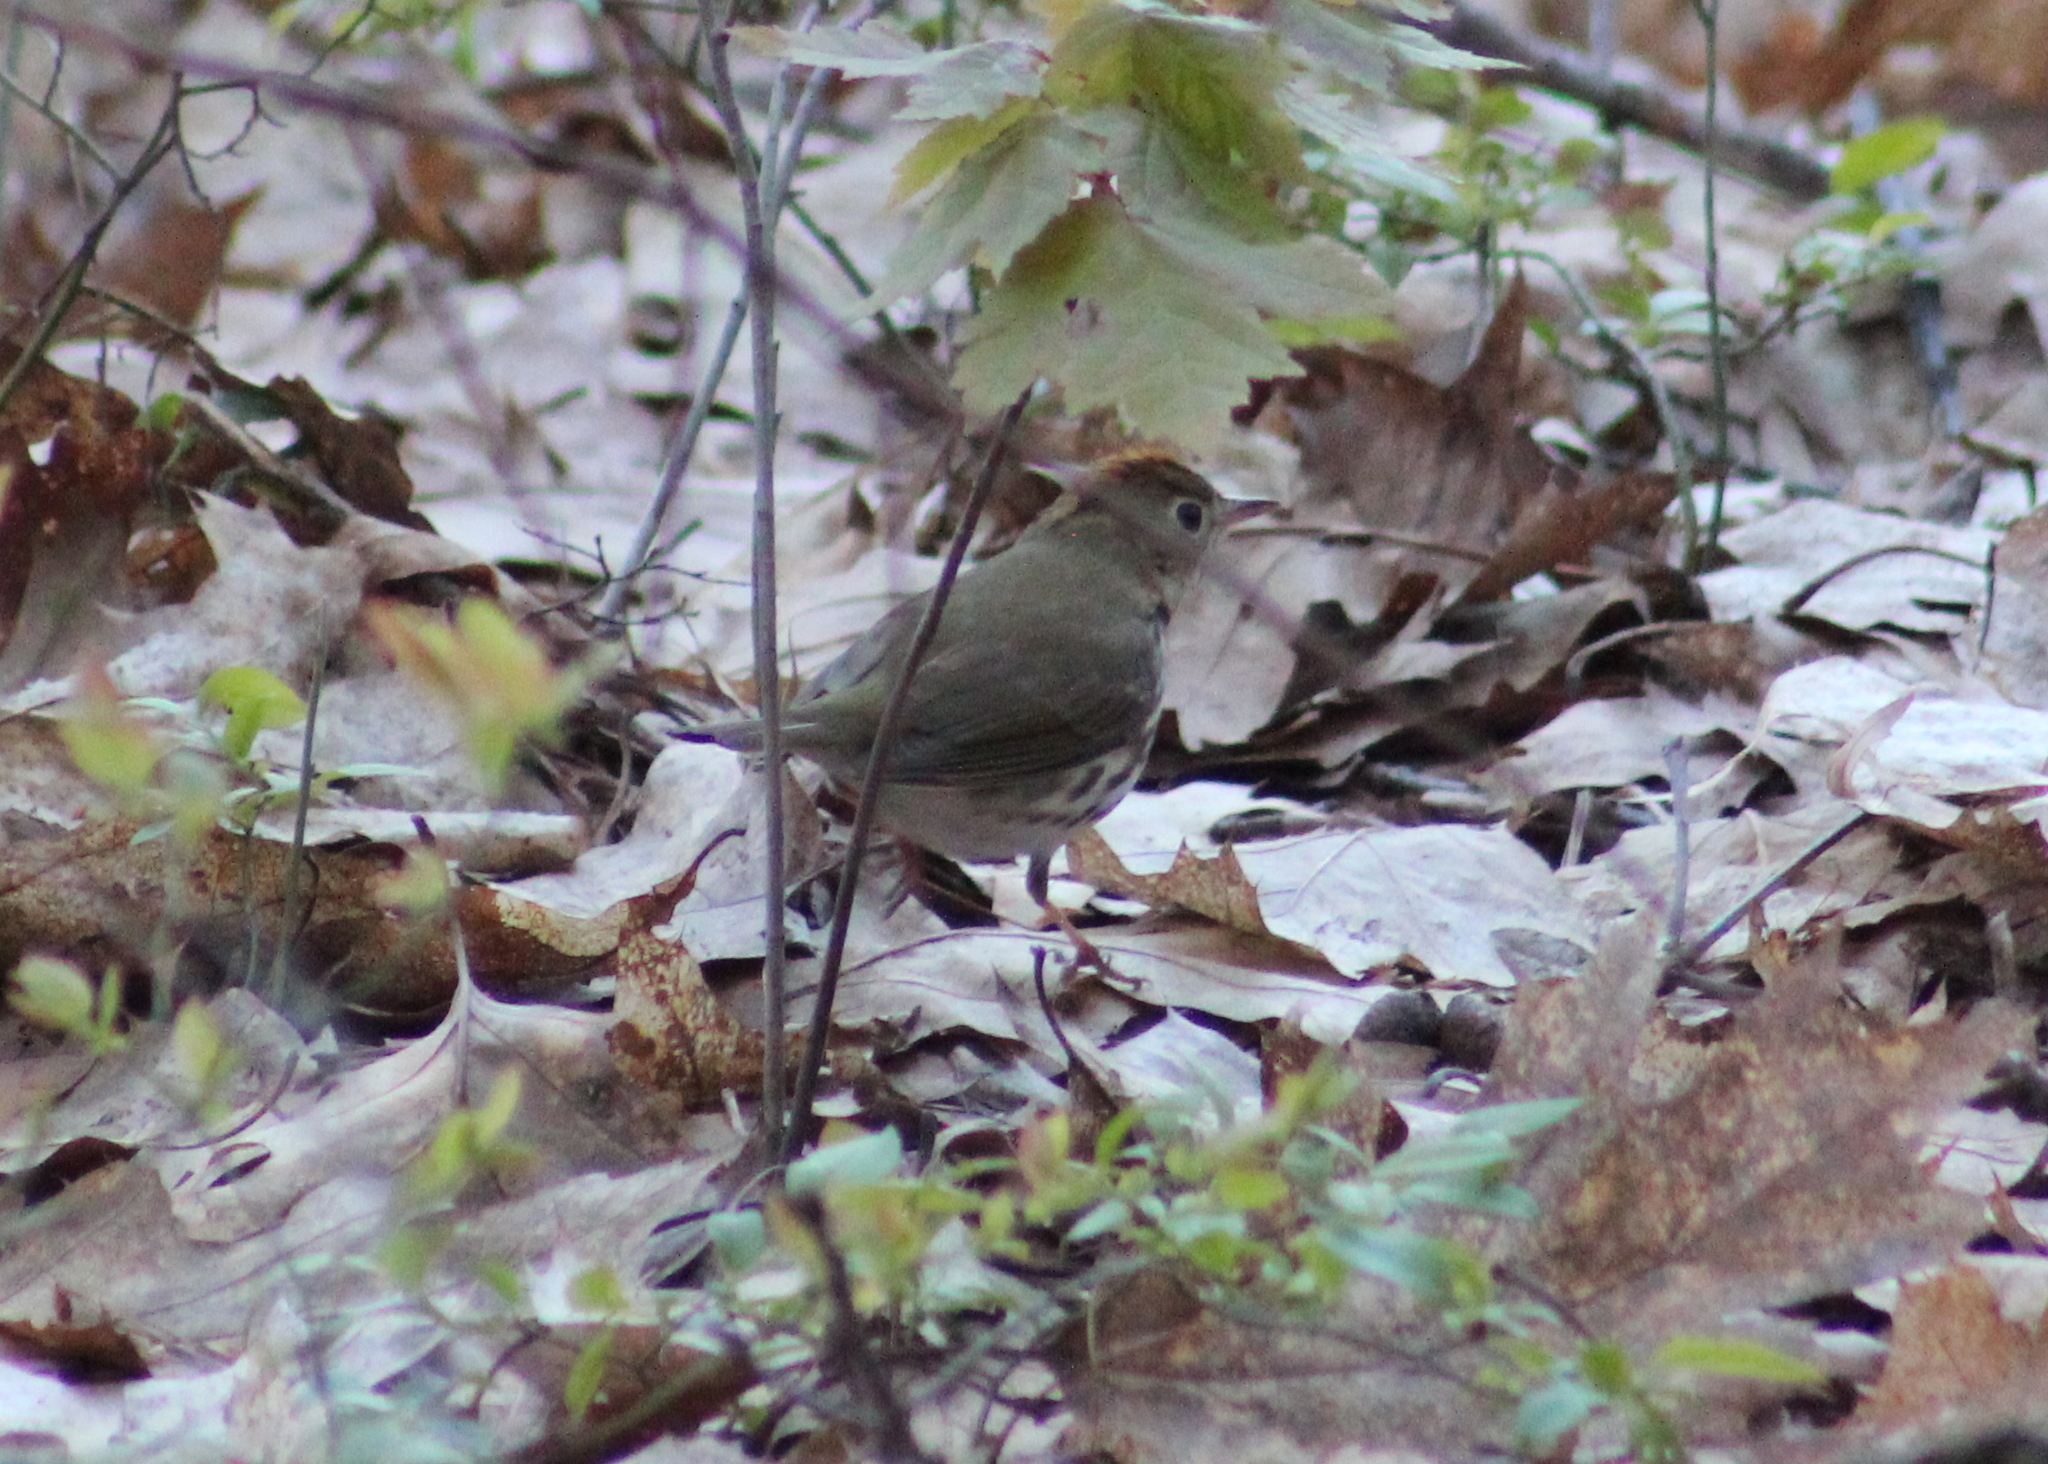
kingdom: Animalia
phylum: Chordata
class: Aves
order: Passeriformes
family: Parulidae
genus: Seiurus
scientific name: Seiurus aurocapilla
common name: Ovenbird
